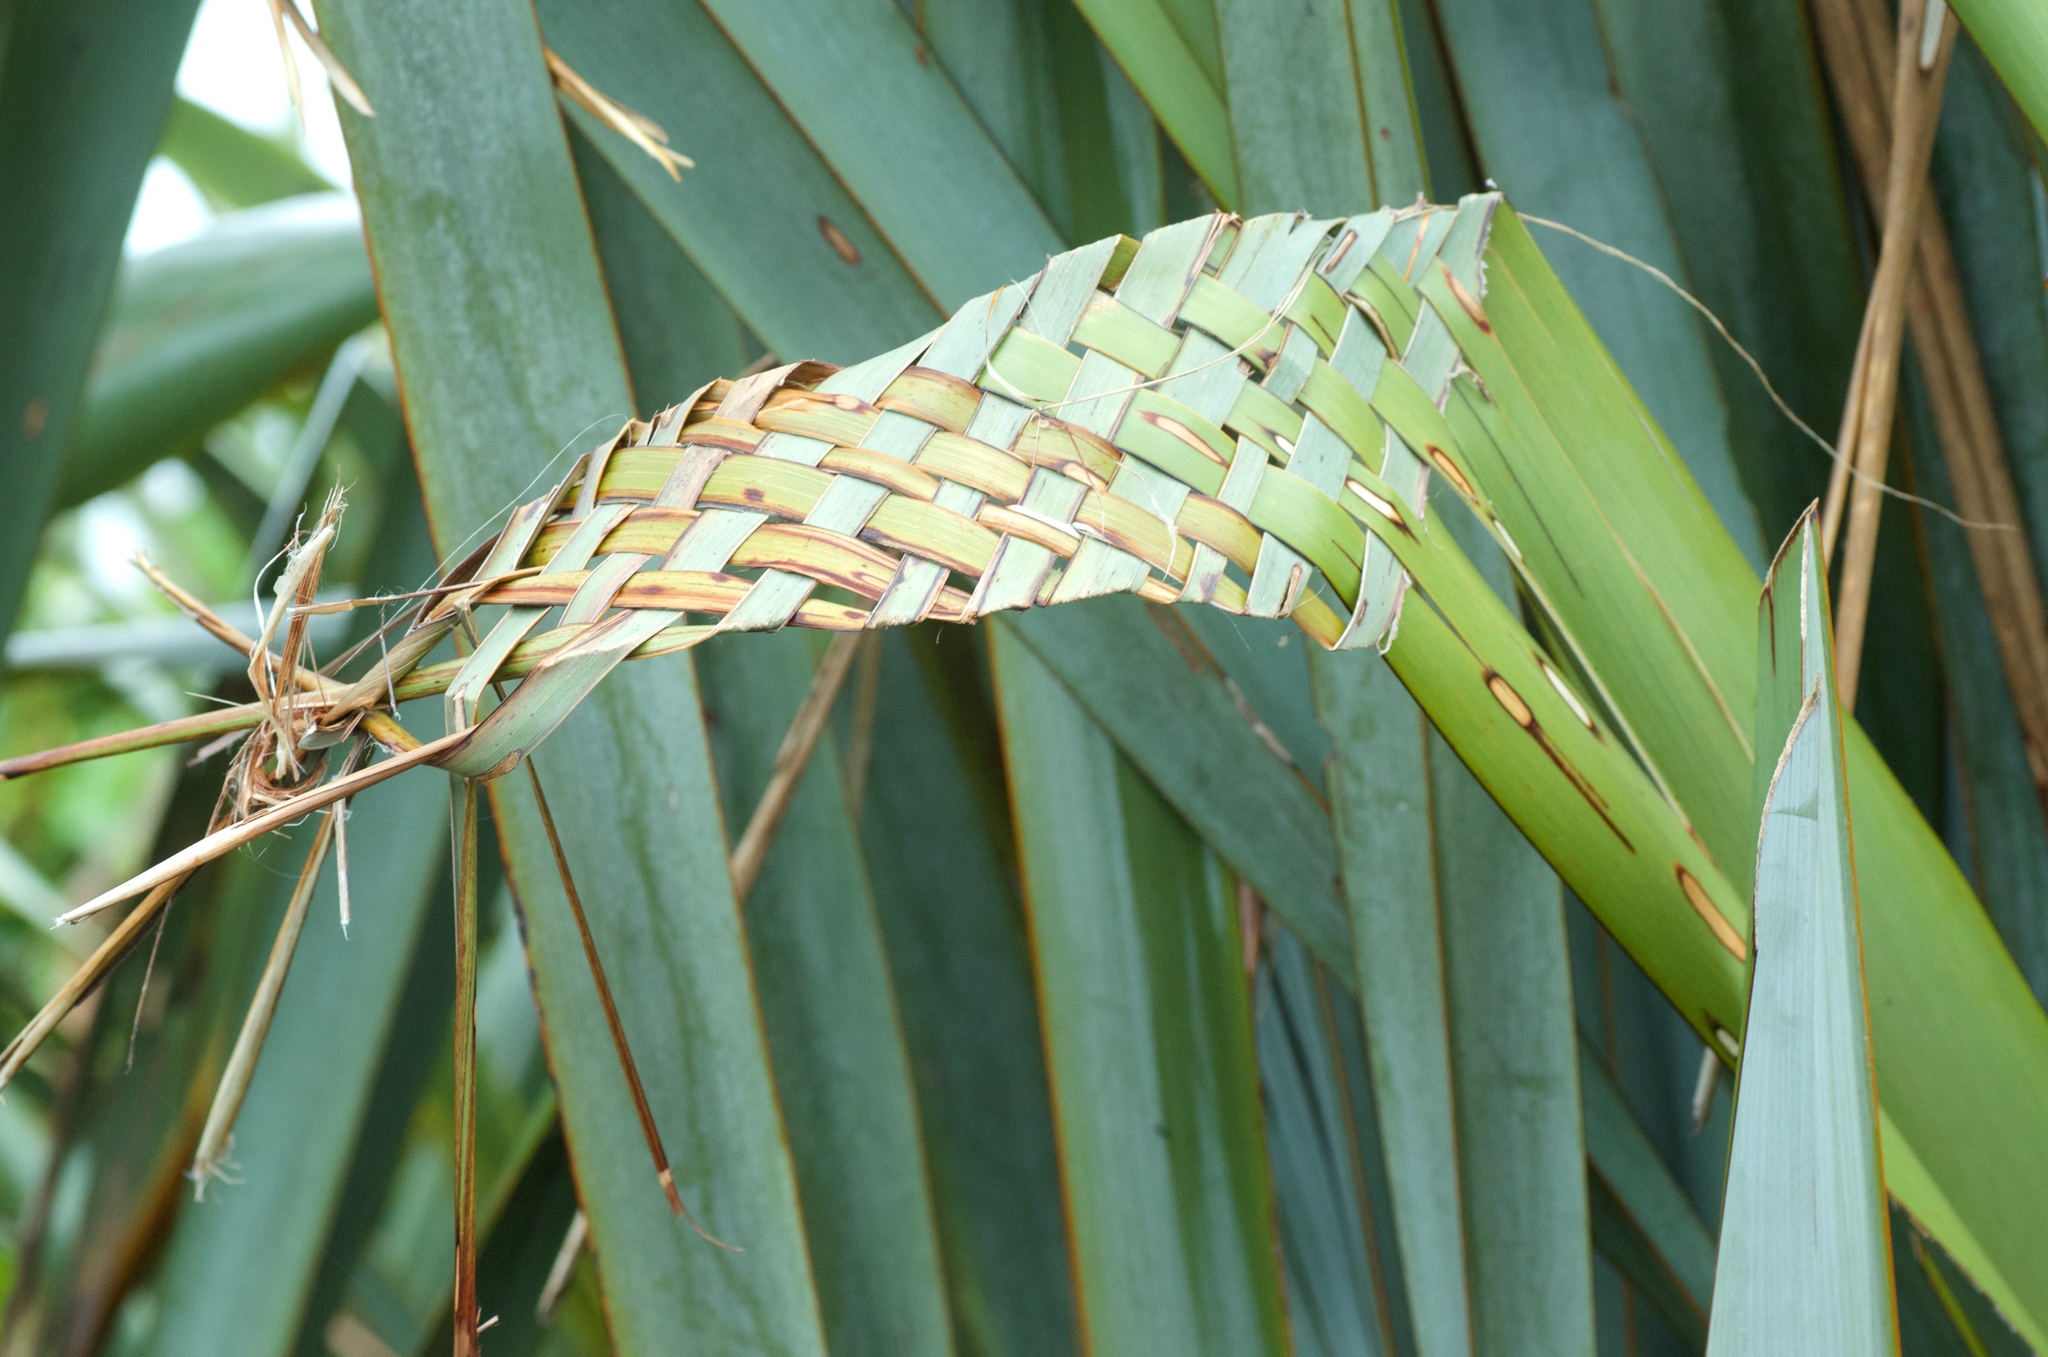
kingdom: Plantae
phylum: Tracheophyta
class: Liliopsida
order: Asparagales
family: Asphodelaceae
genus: Phormium
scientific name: Phormium tenax
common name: New zealand flax
